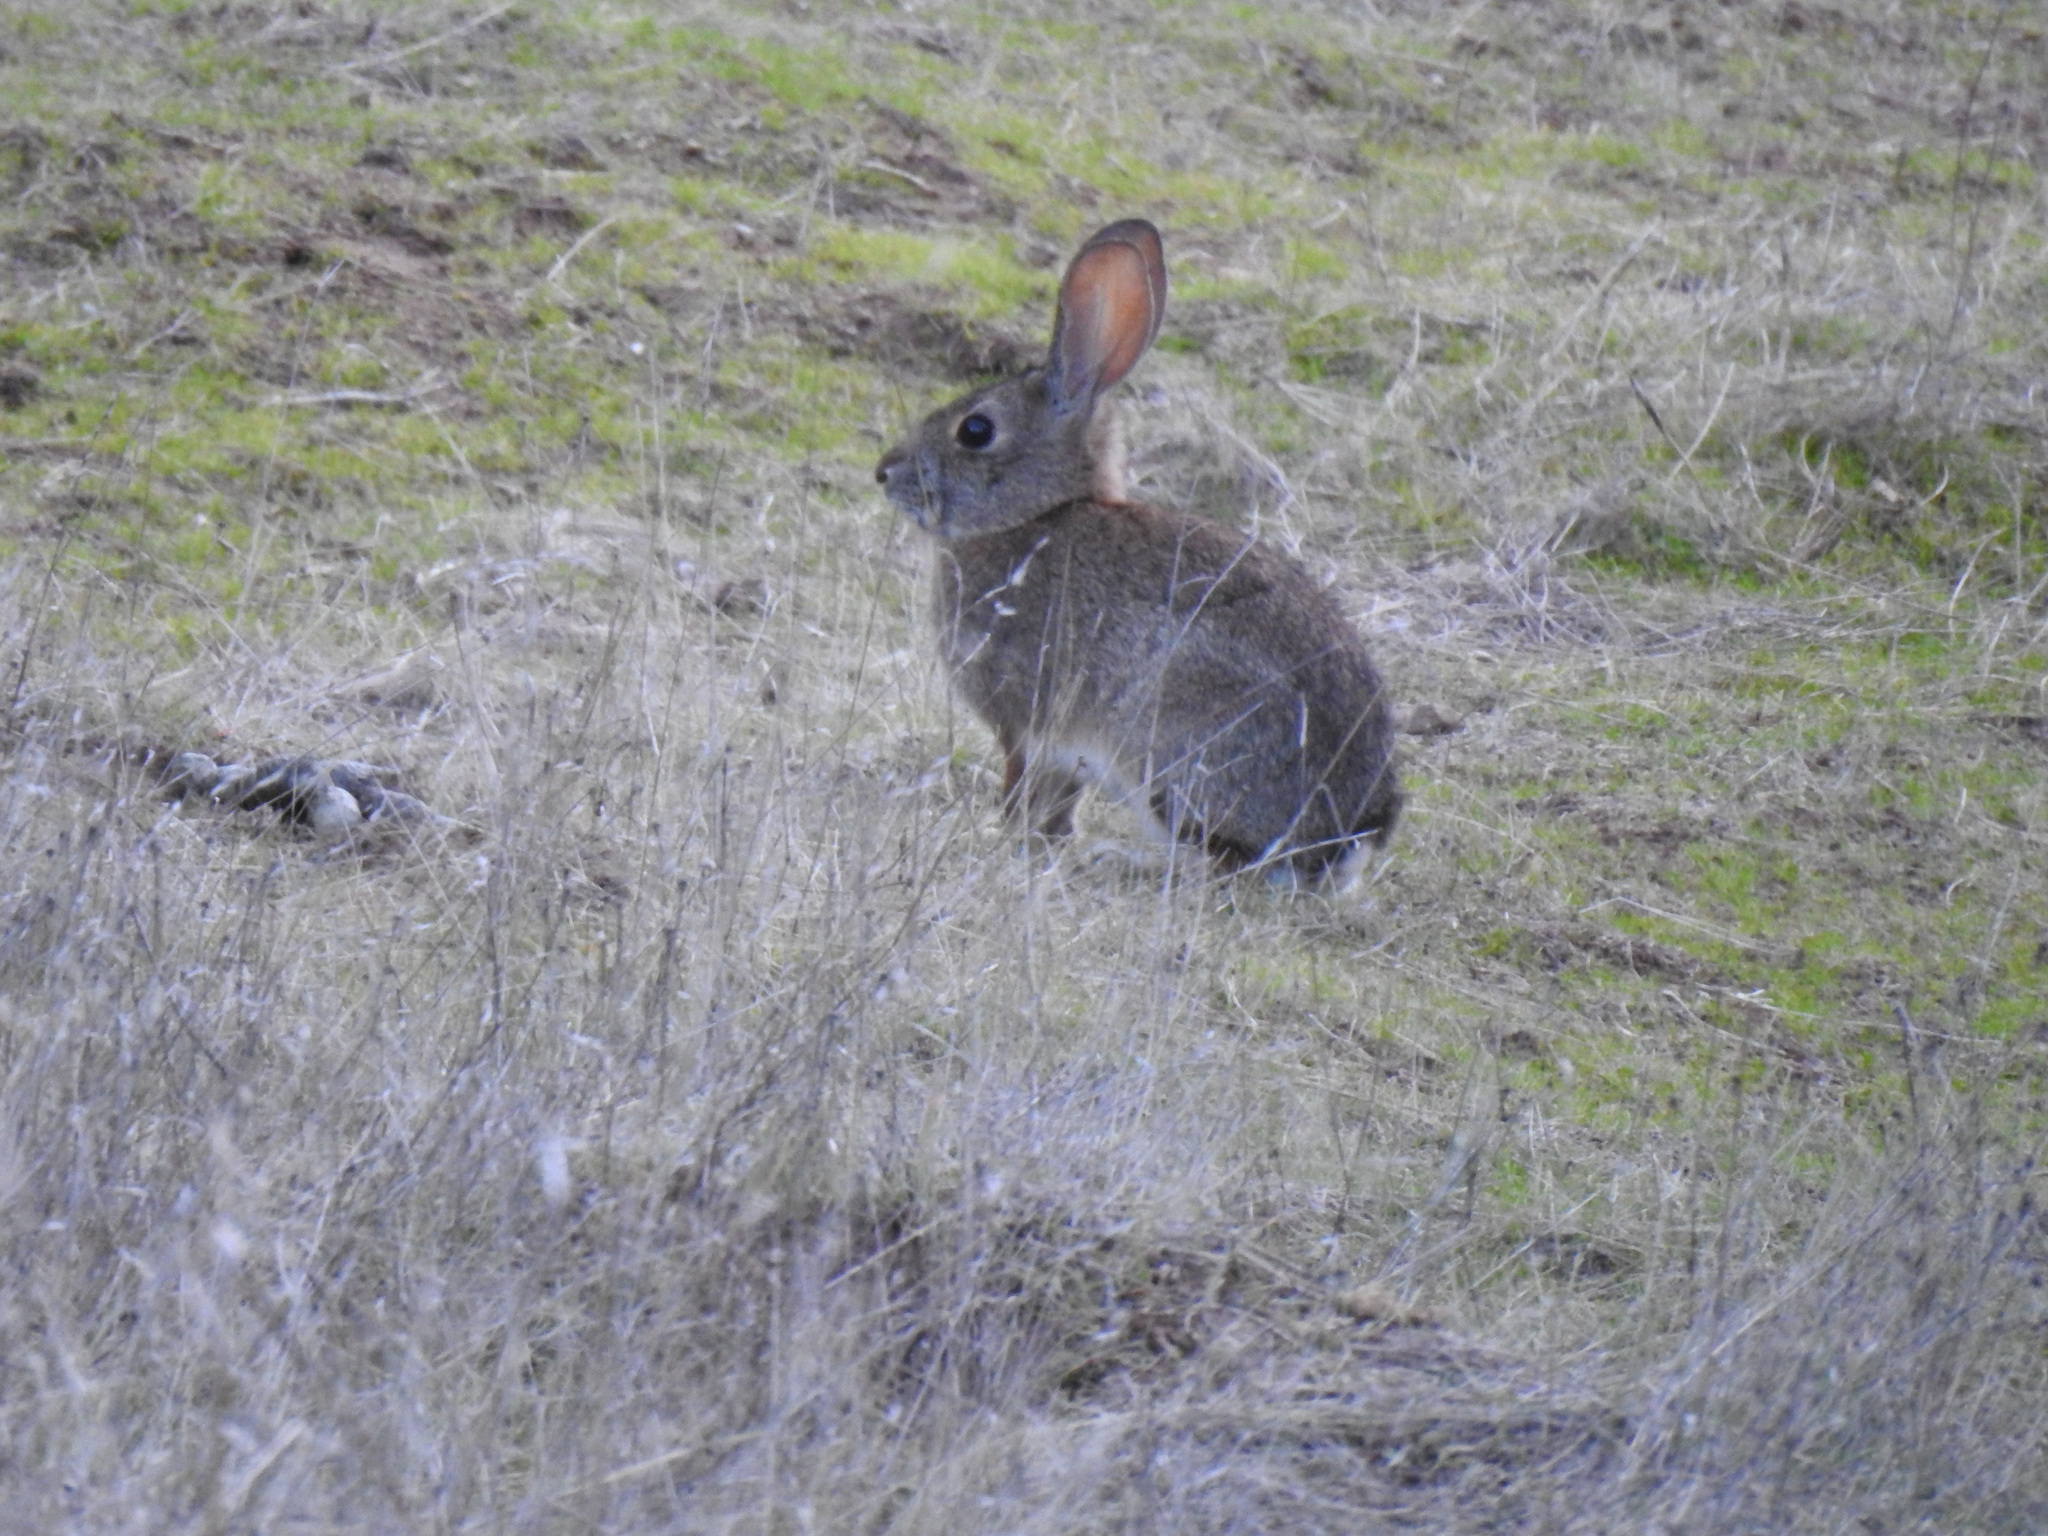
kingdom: Animalia
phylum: Chordata
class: Mammalia
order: Lagomorpha
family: Leporidae
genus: Sylvilagus
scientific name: Sylvilagus audubonii
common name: Desert cottontail
